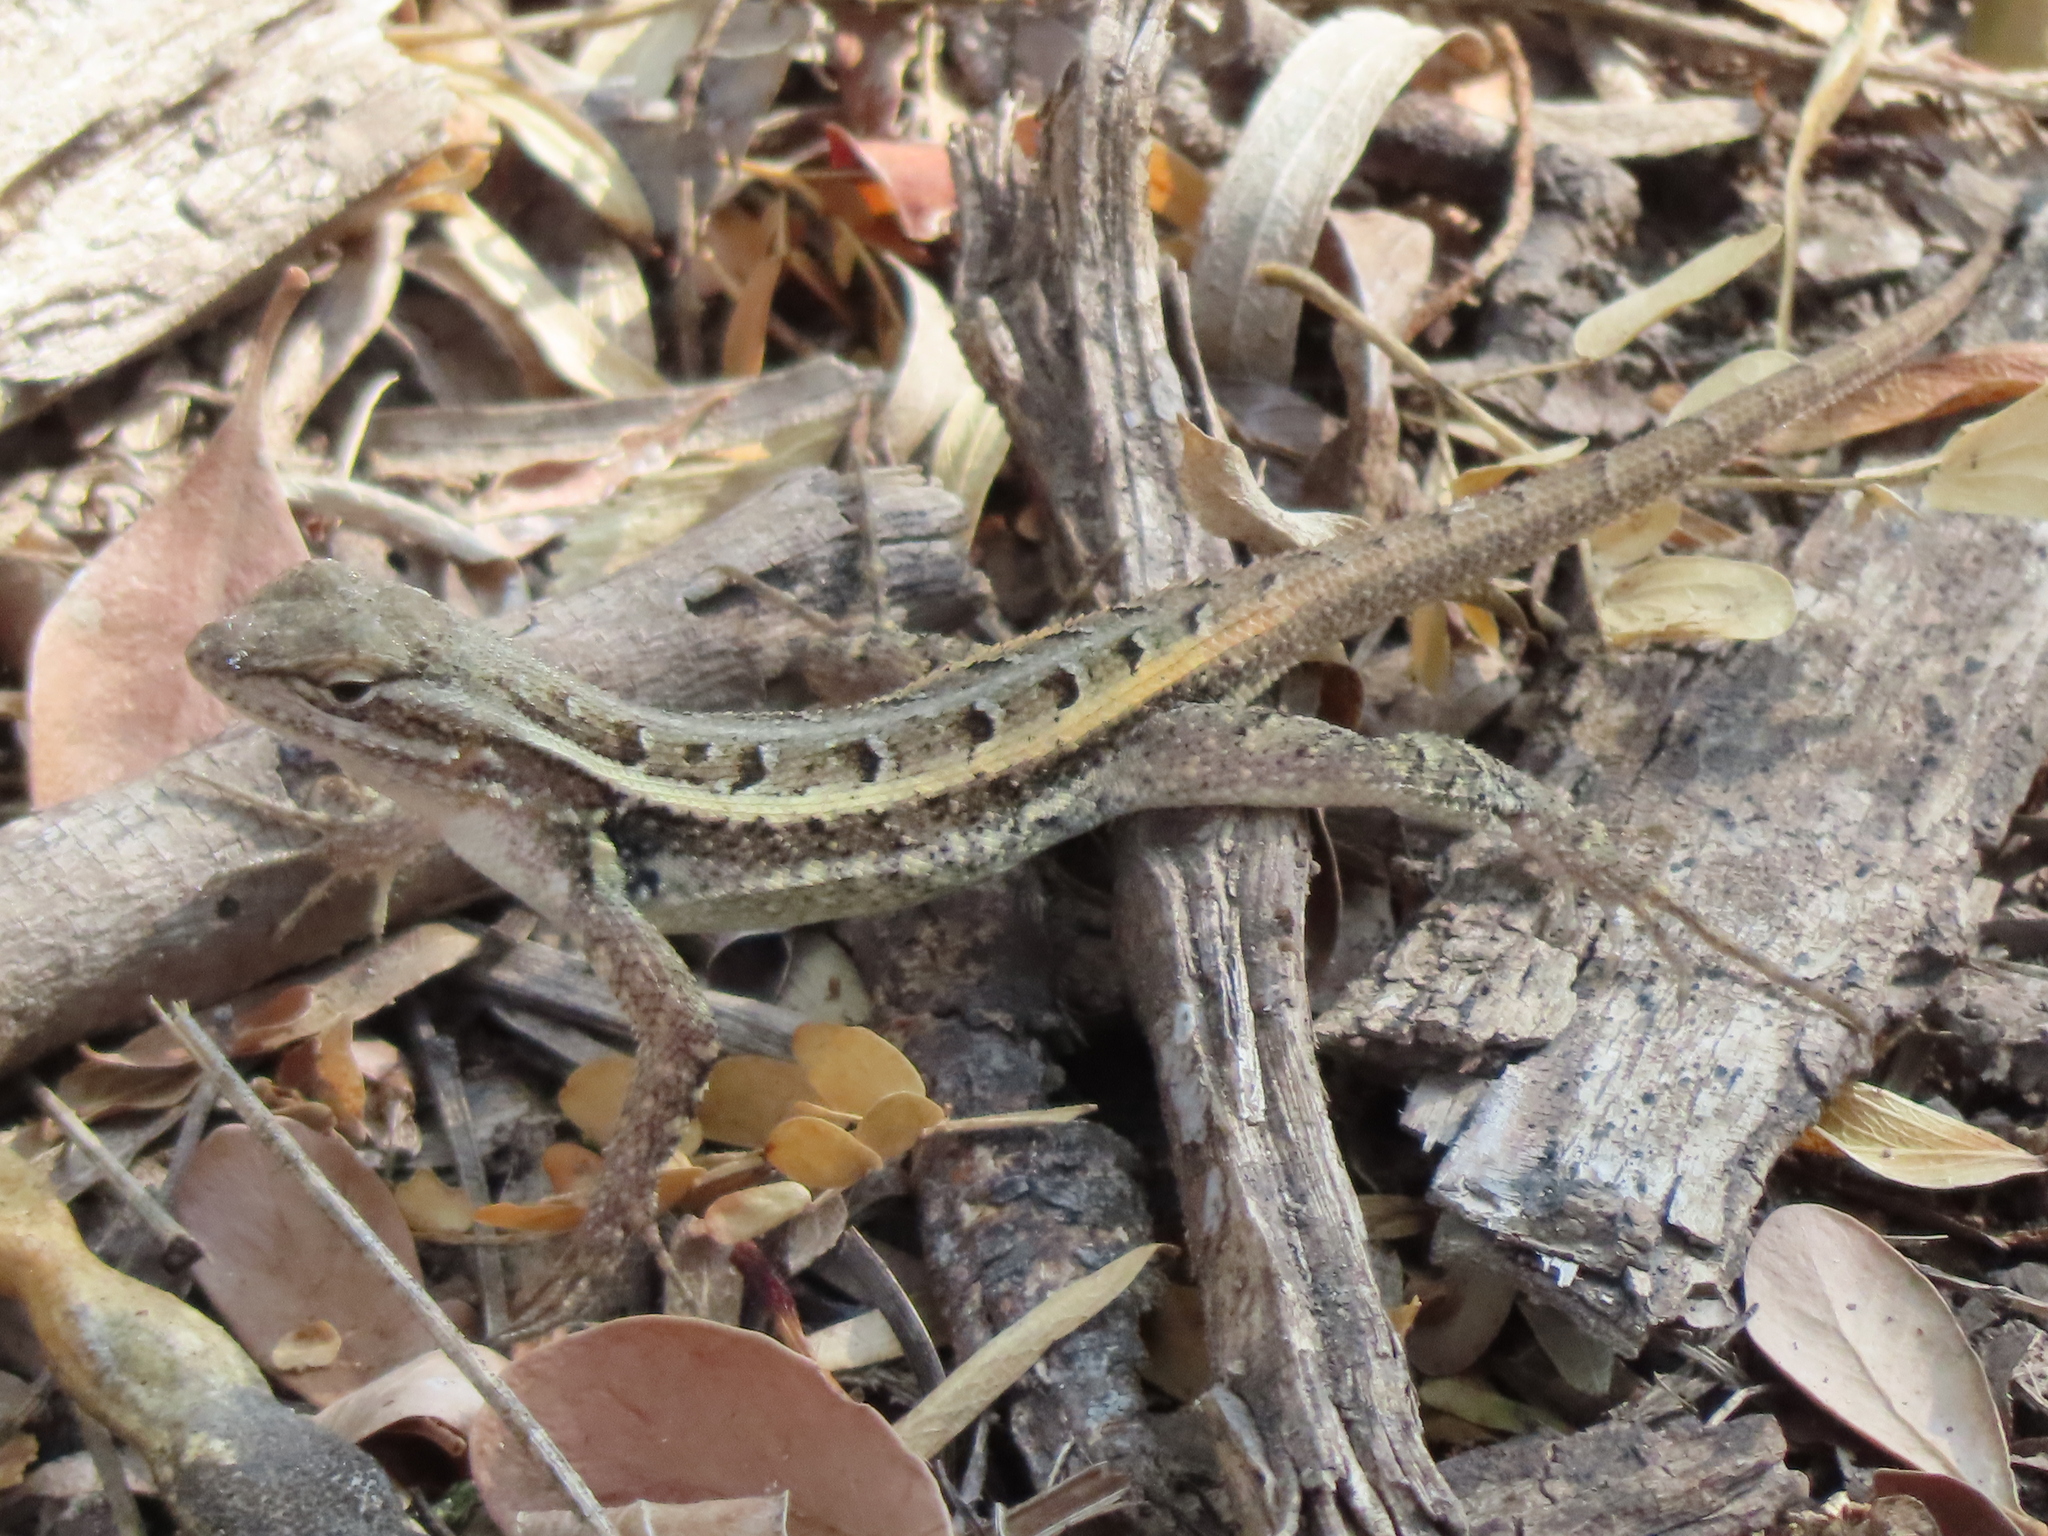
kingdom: Animalia
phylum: Chordata
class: Squamata
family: Phrynosomatidae
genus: Sceloporus
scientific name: Sceloporus variabilis
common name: Rosebelly lizard
